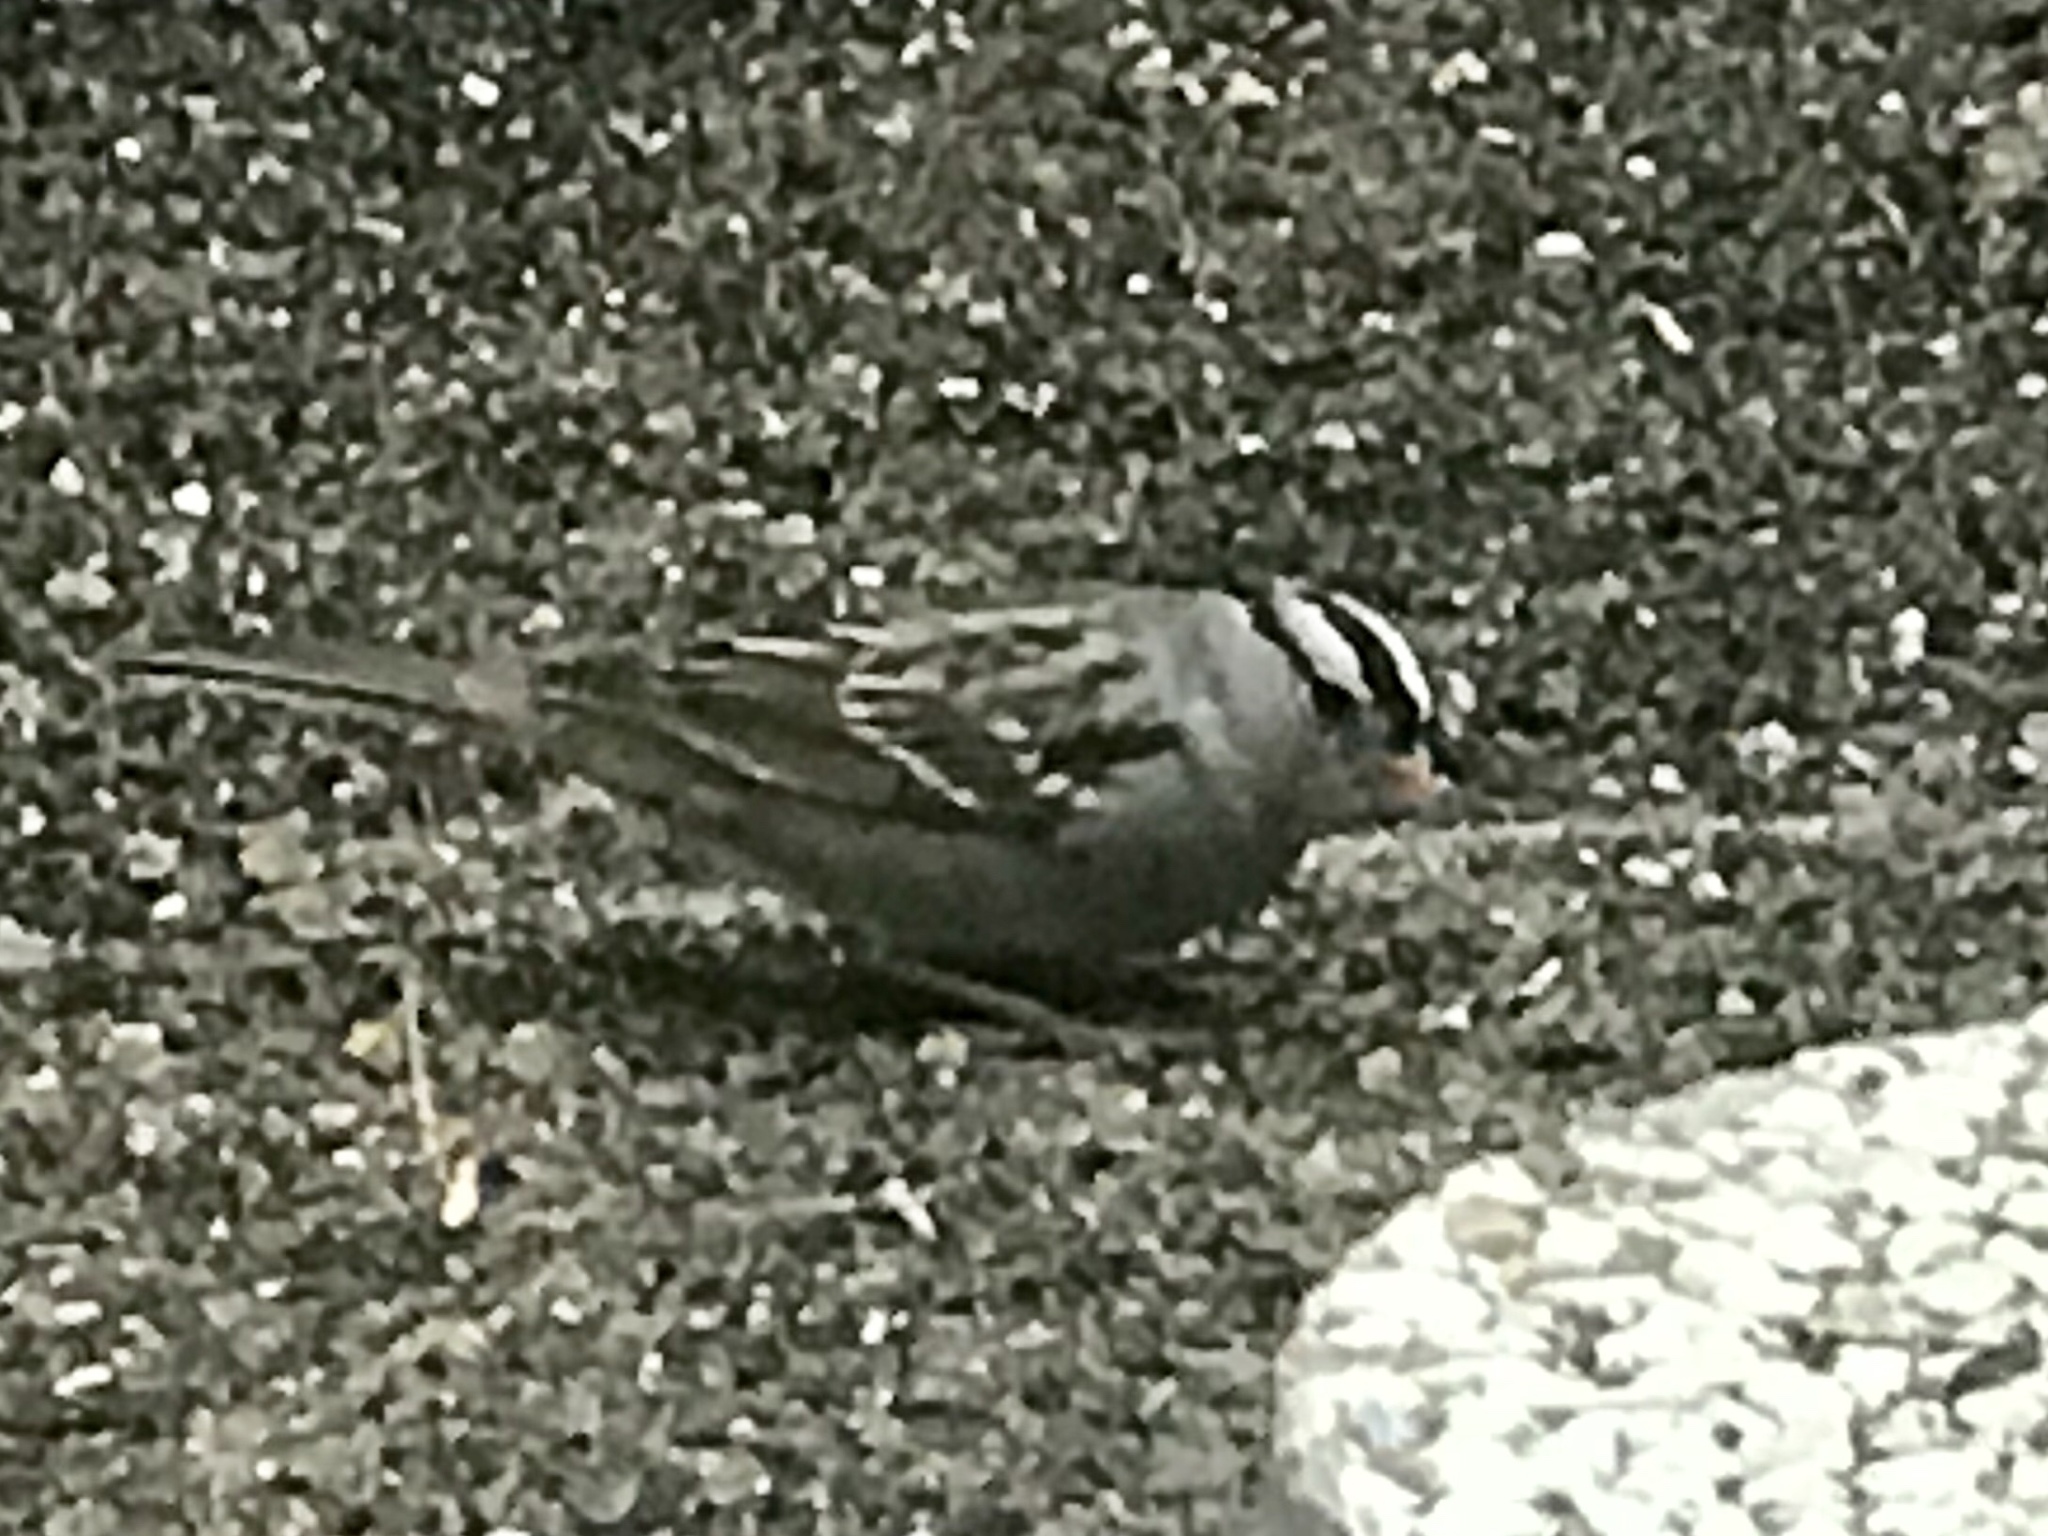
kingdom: Animalia
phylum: Chordata
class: Aves
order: Passeriformes
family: Passerellidae
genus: Zonotrichia
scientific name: Zonotrichia leucophrys
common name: White-crowned sparrow
